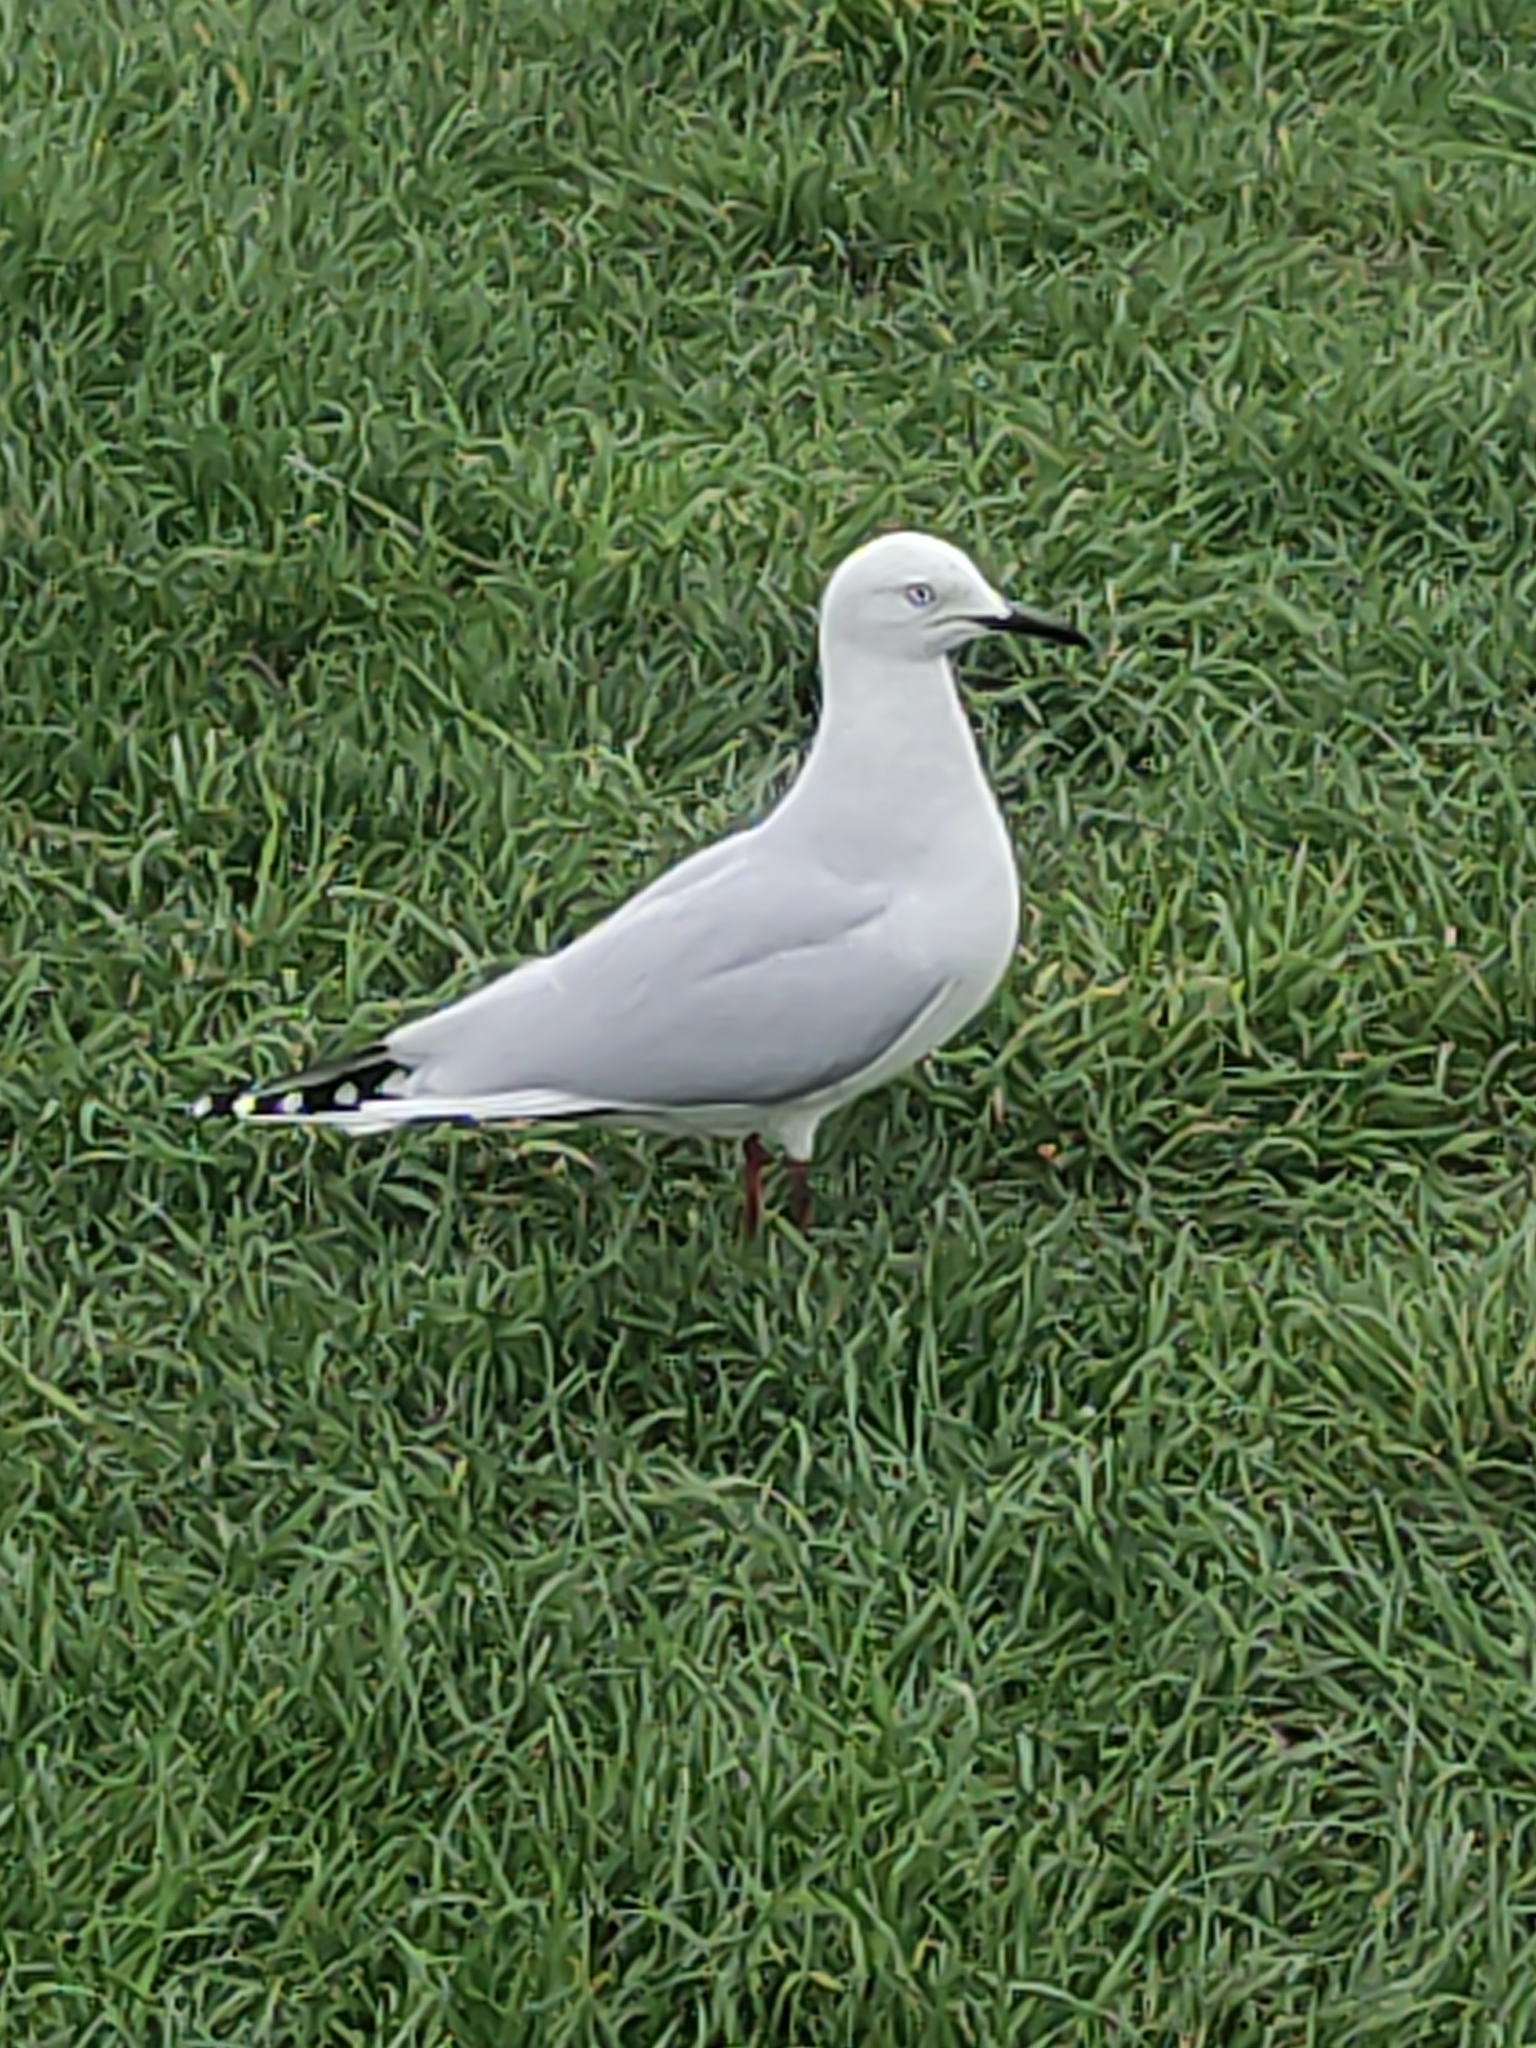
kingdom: Animalia
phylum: Chordata
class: Aves
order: Charadriiformes
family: Laridae
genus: Chroicocephalus
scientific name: Chroicocephalus bulleri
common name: Black-billed gull
